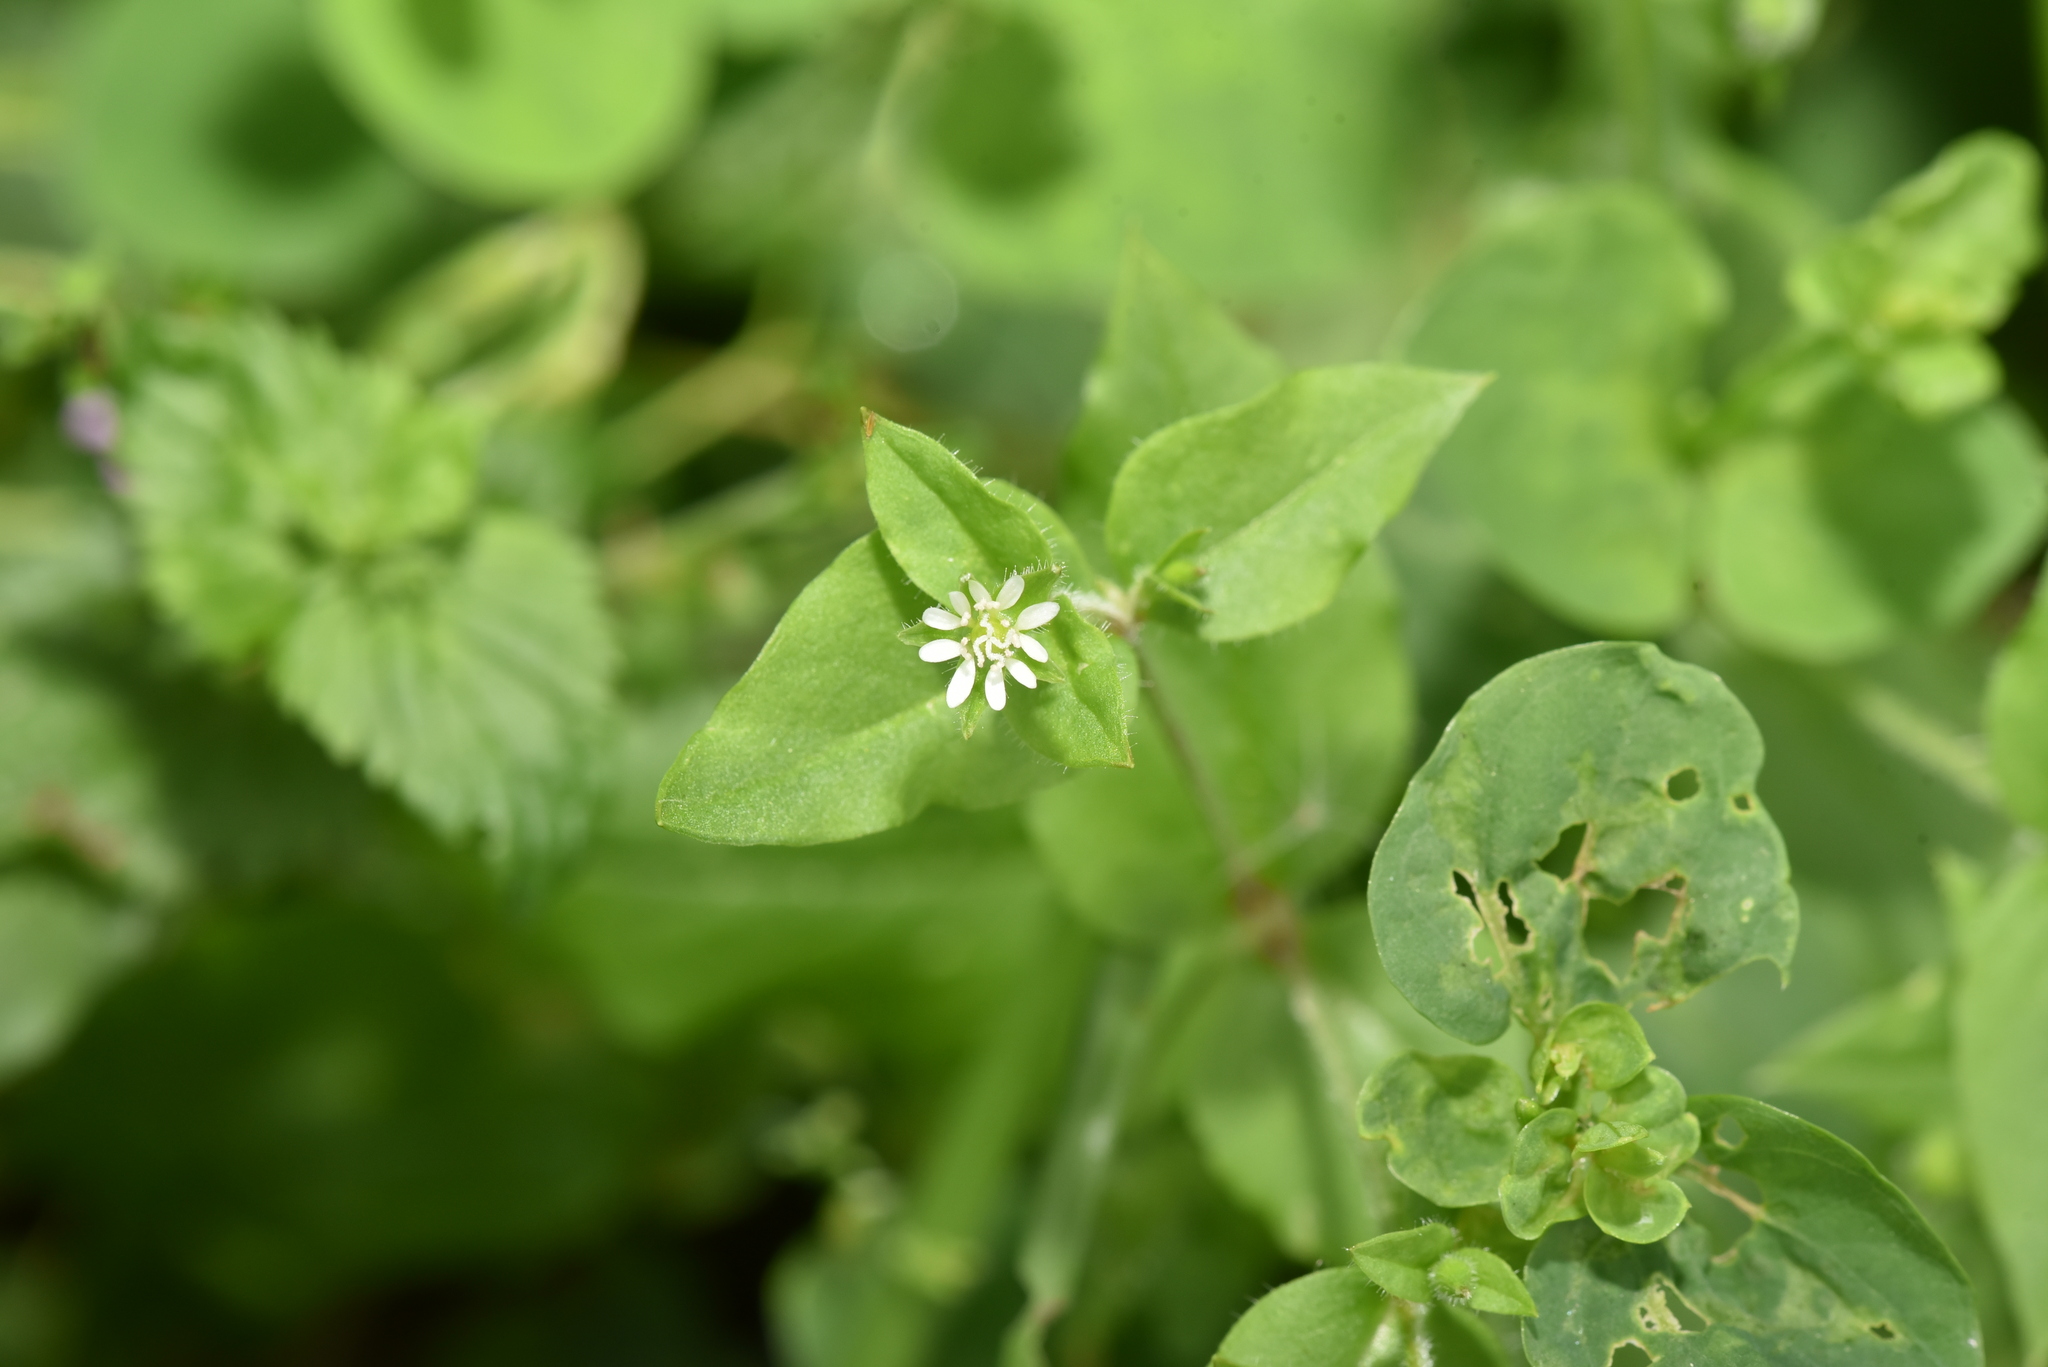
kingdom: Plantae
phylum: Tracheophyta
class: Magnoliopsida
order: Caryophyllales
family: Caryophyllaceae
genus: Stellaria
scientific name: Stellaria aquatica
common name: Water chickweed
